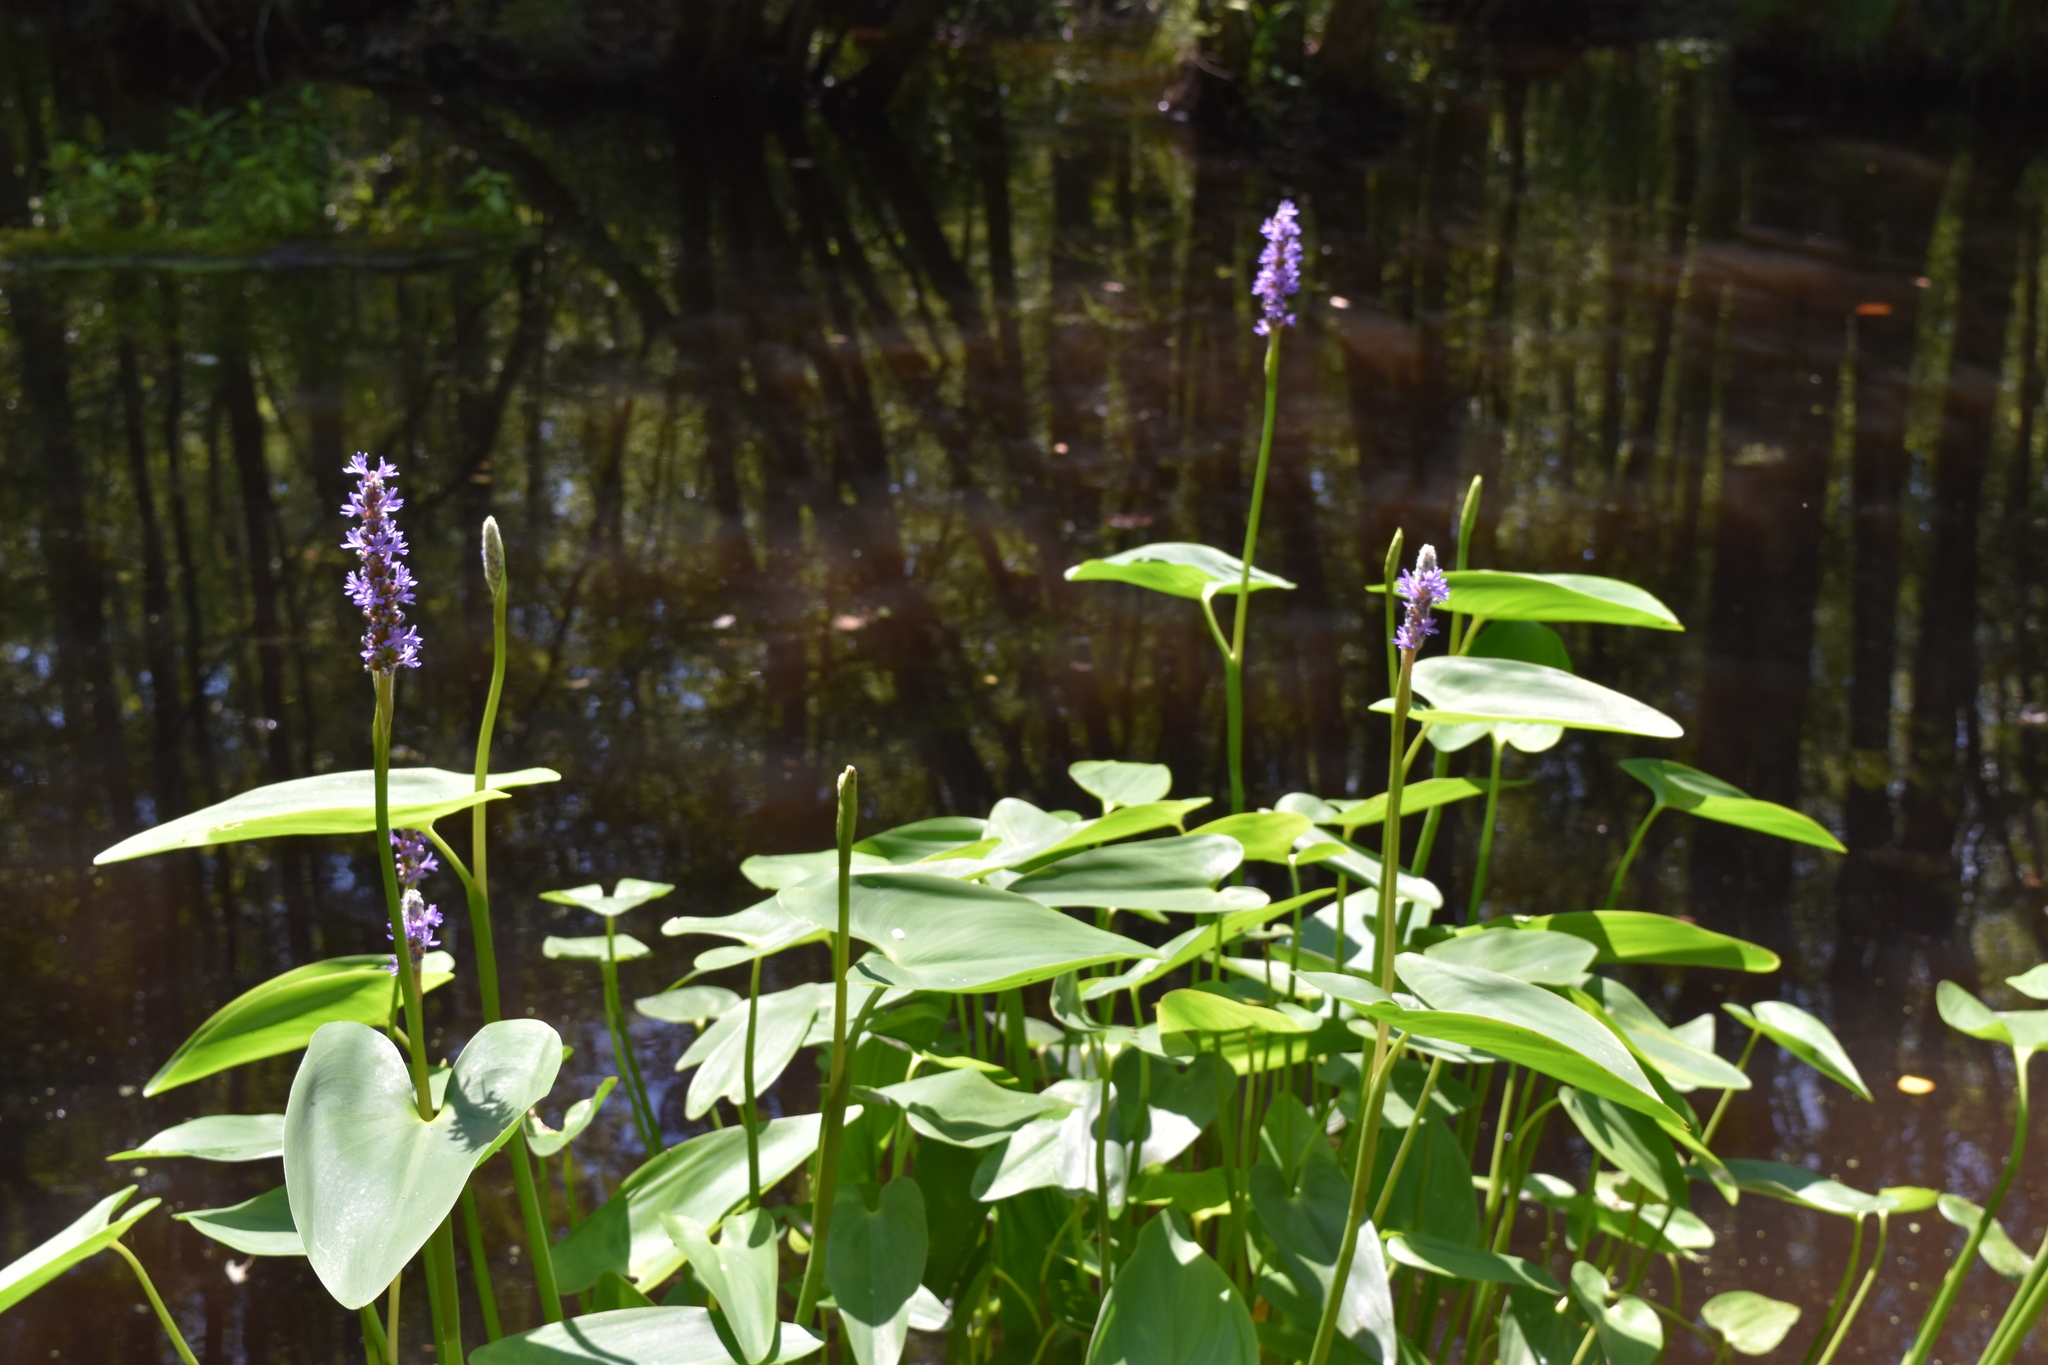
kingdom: Plantae
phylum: Tracheophyta
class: Liliopsida
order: Commelinales
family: Pontederiaceae
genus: Pontederia
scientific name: Pontederia cordata
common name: Pickerelweed
